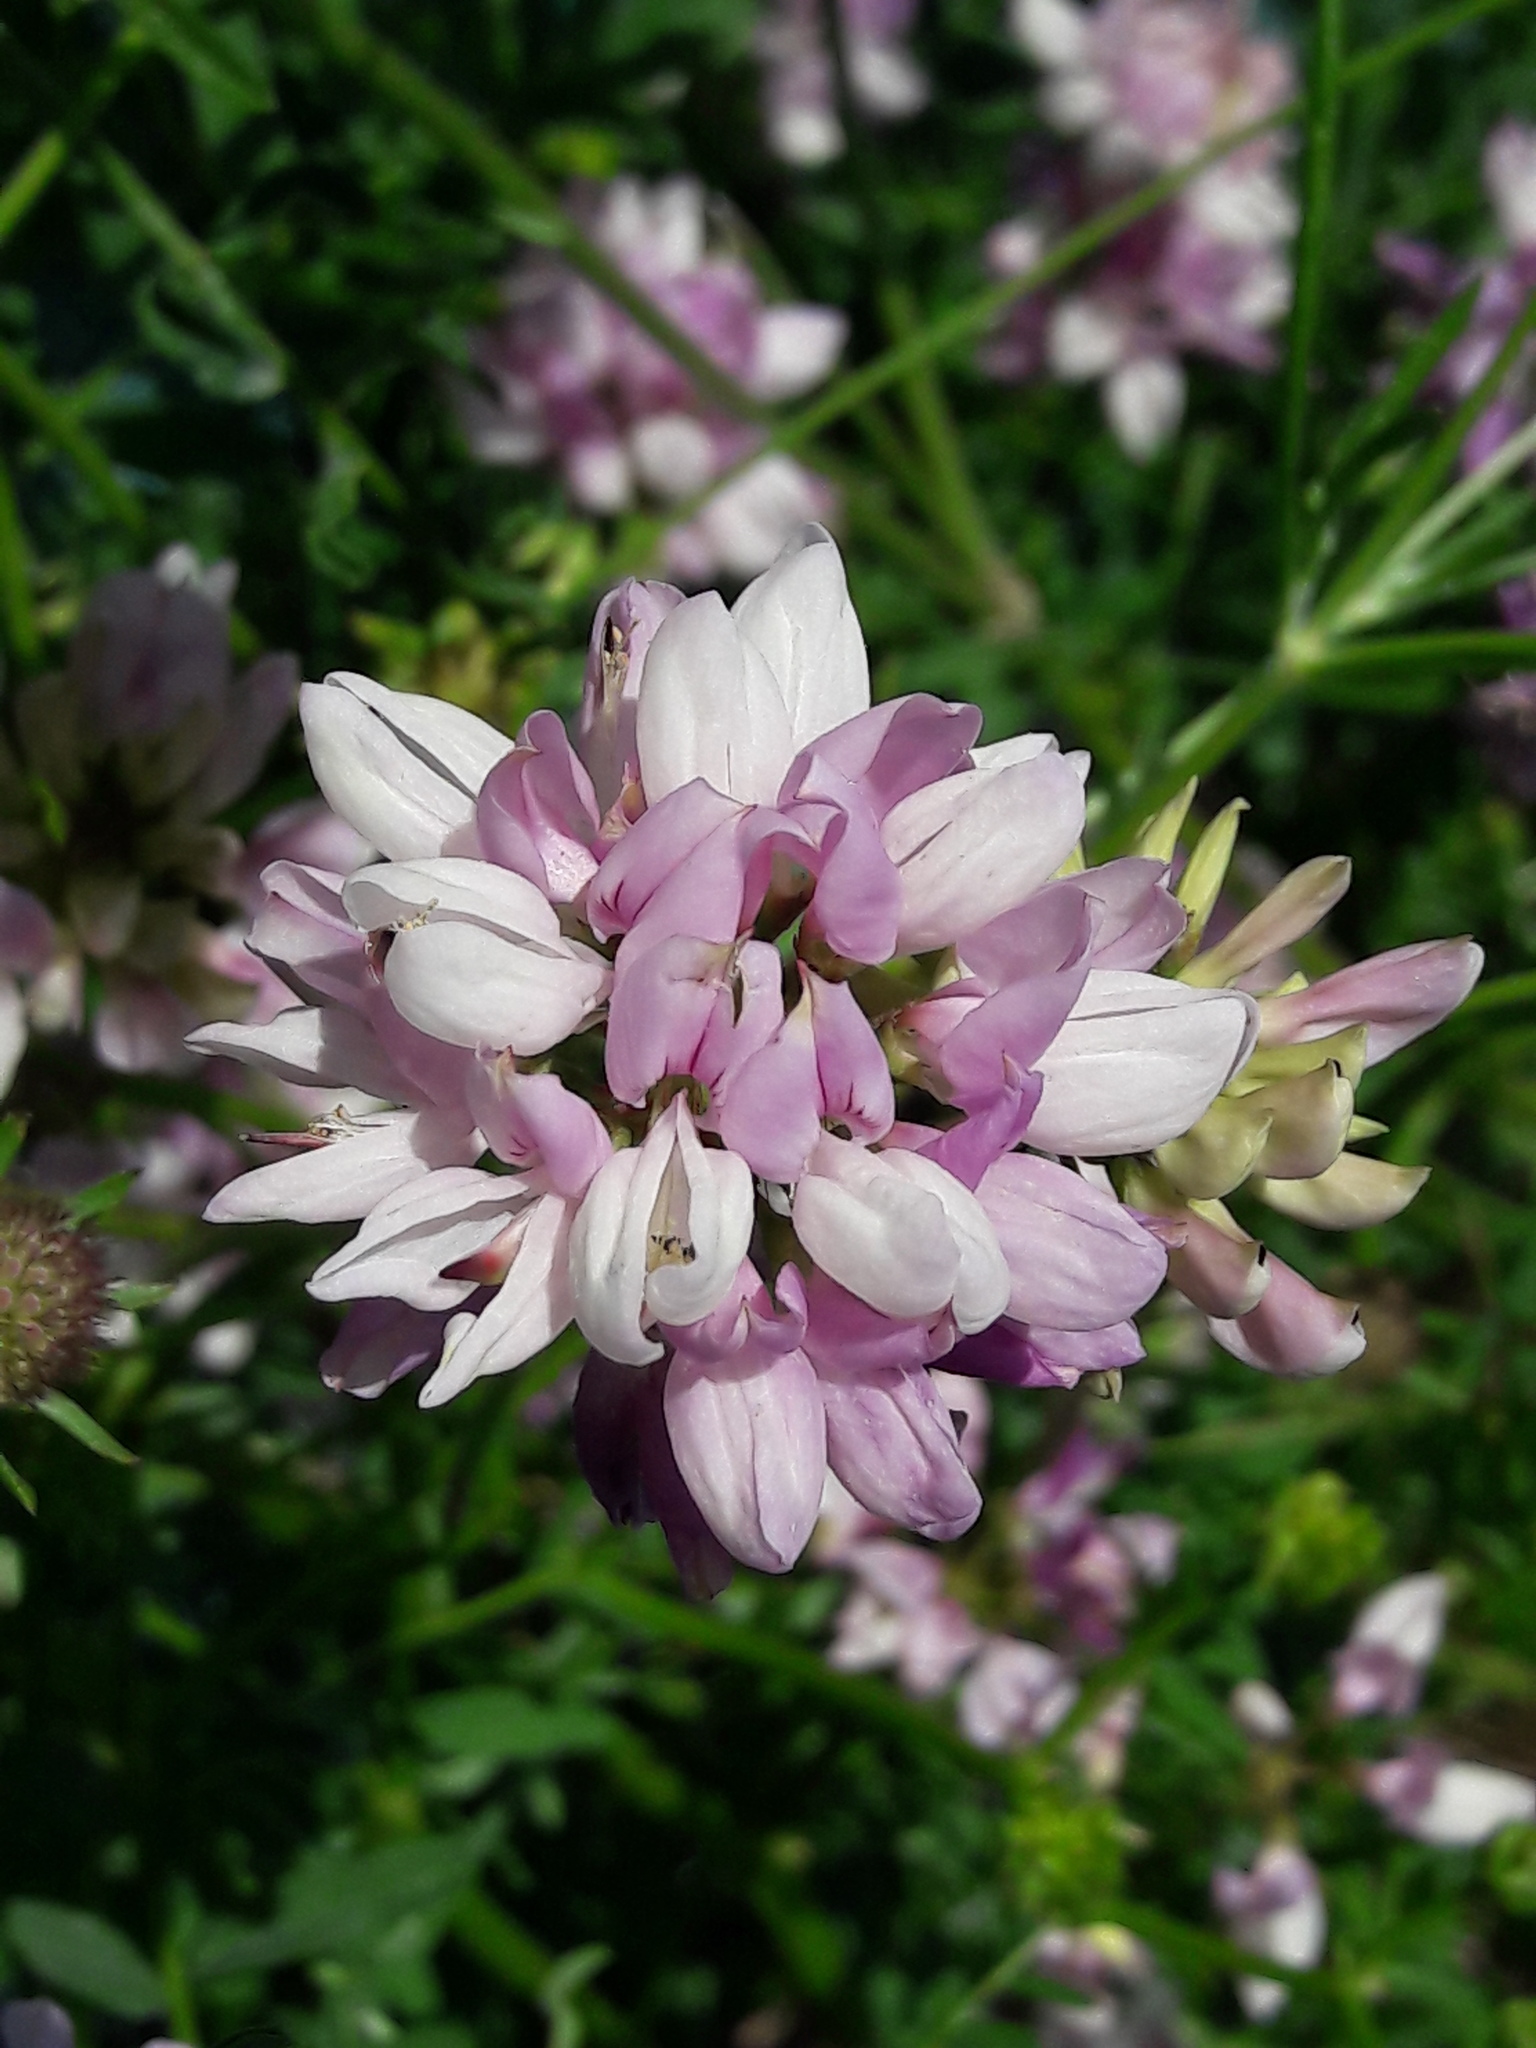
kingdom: Plantae
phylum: Tracheophyta
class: Magnoliopsida
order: Fabales
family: Fabaceae
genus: Coronilla
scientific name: Coronilla varia
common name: Crownvetch
